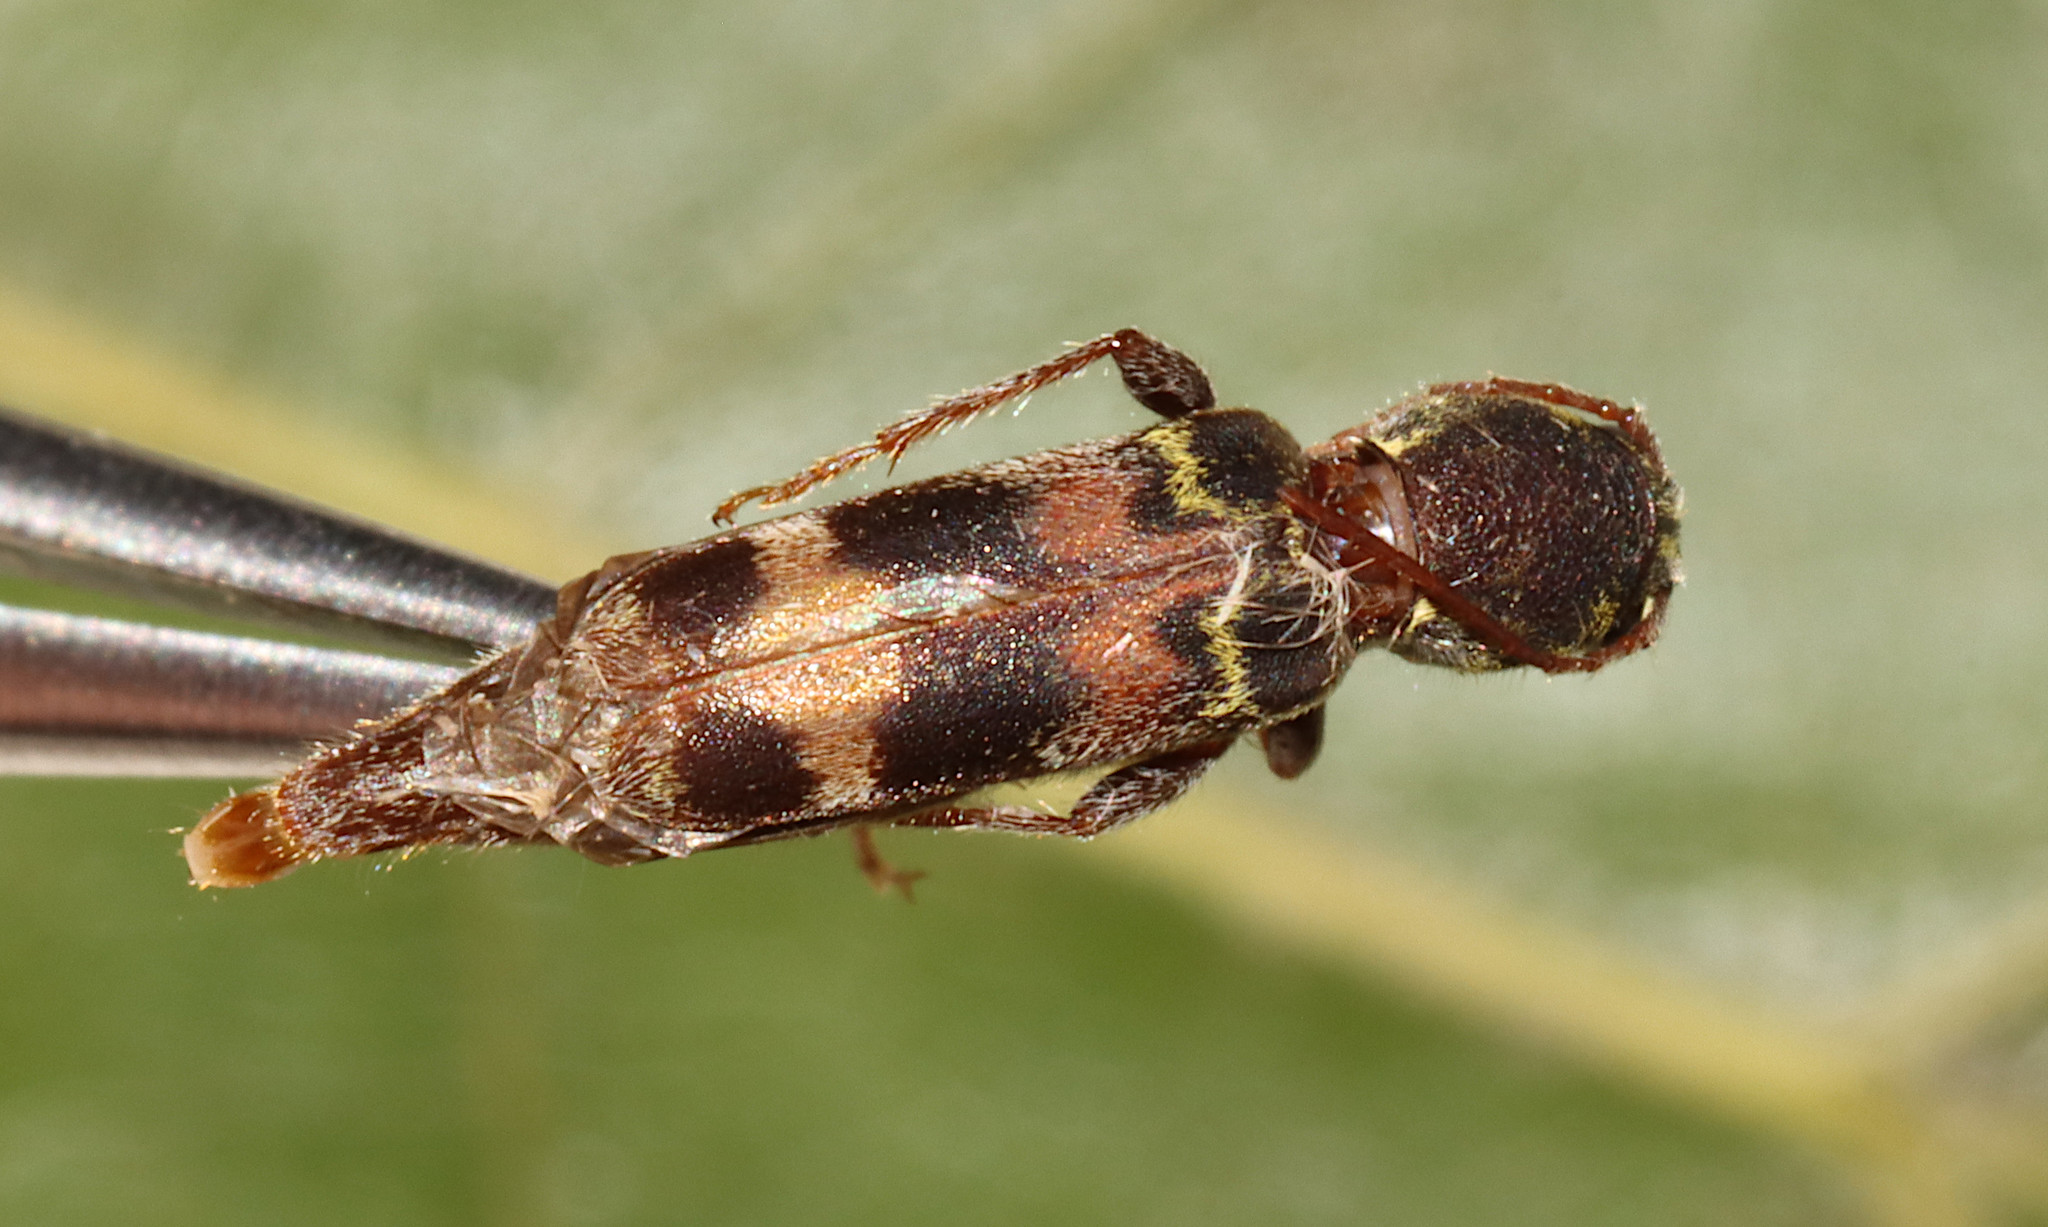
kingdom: Animalia
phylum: Arthropoda
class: Insecta
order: Coleoptera
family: Cerambycidae
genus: Xylotrechus
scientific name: Xylotrechus colonus
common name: Long-horned beetle
